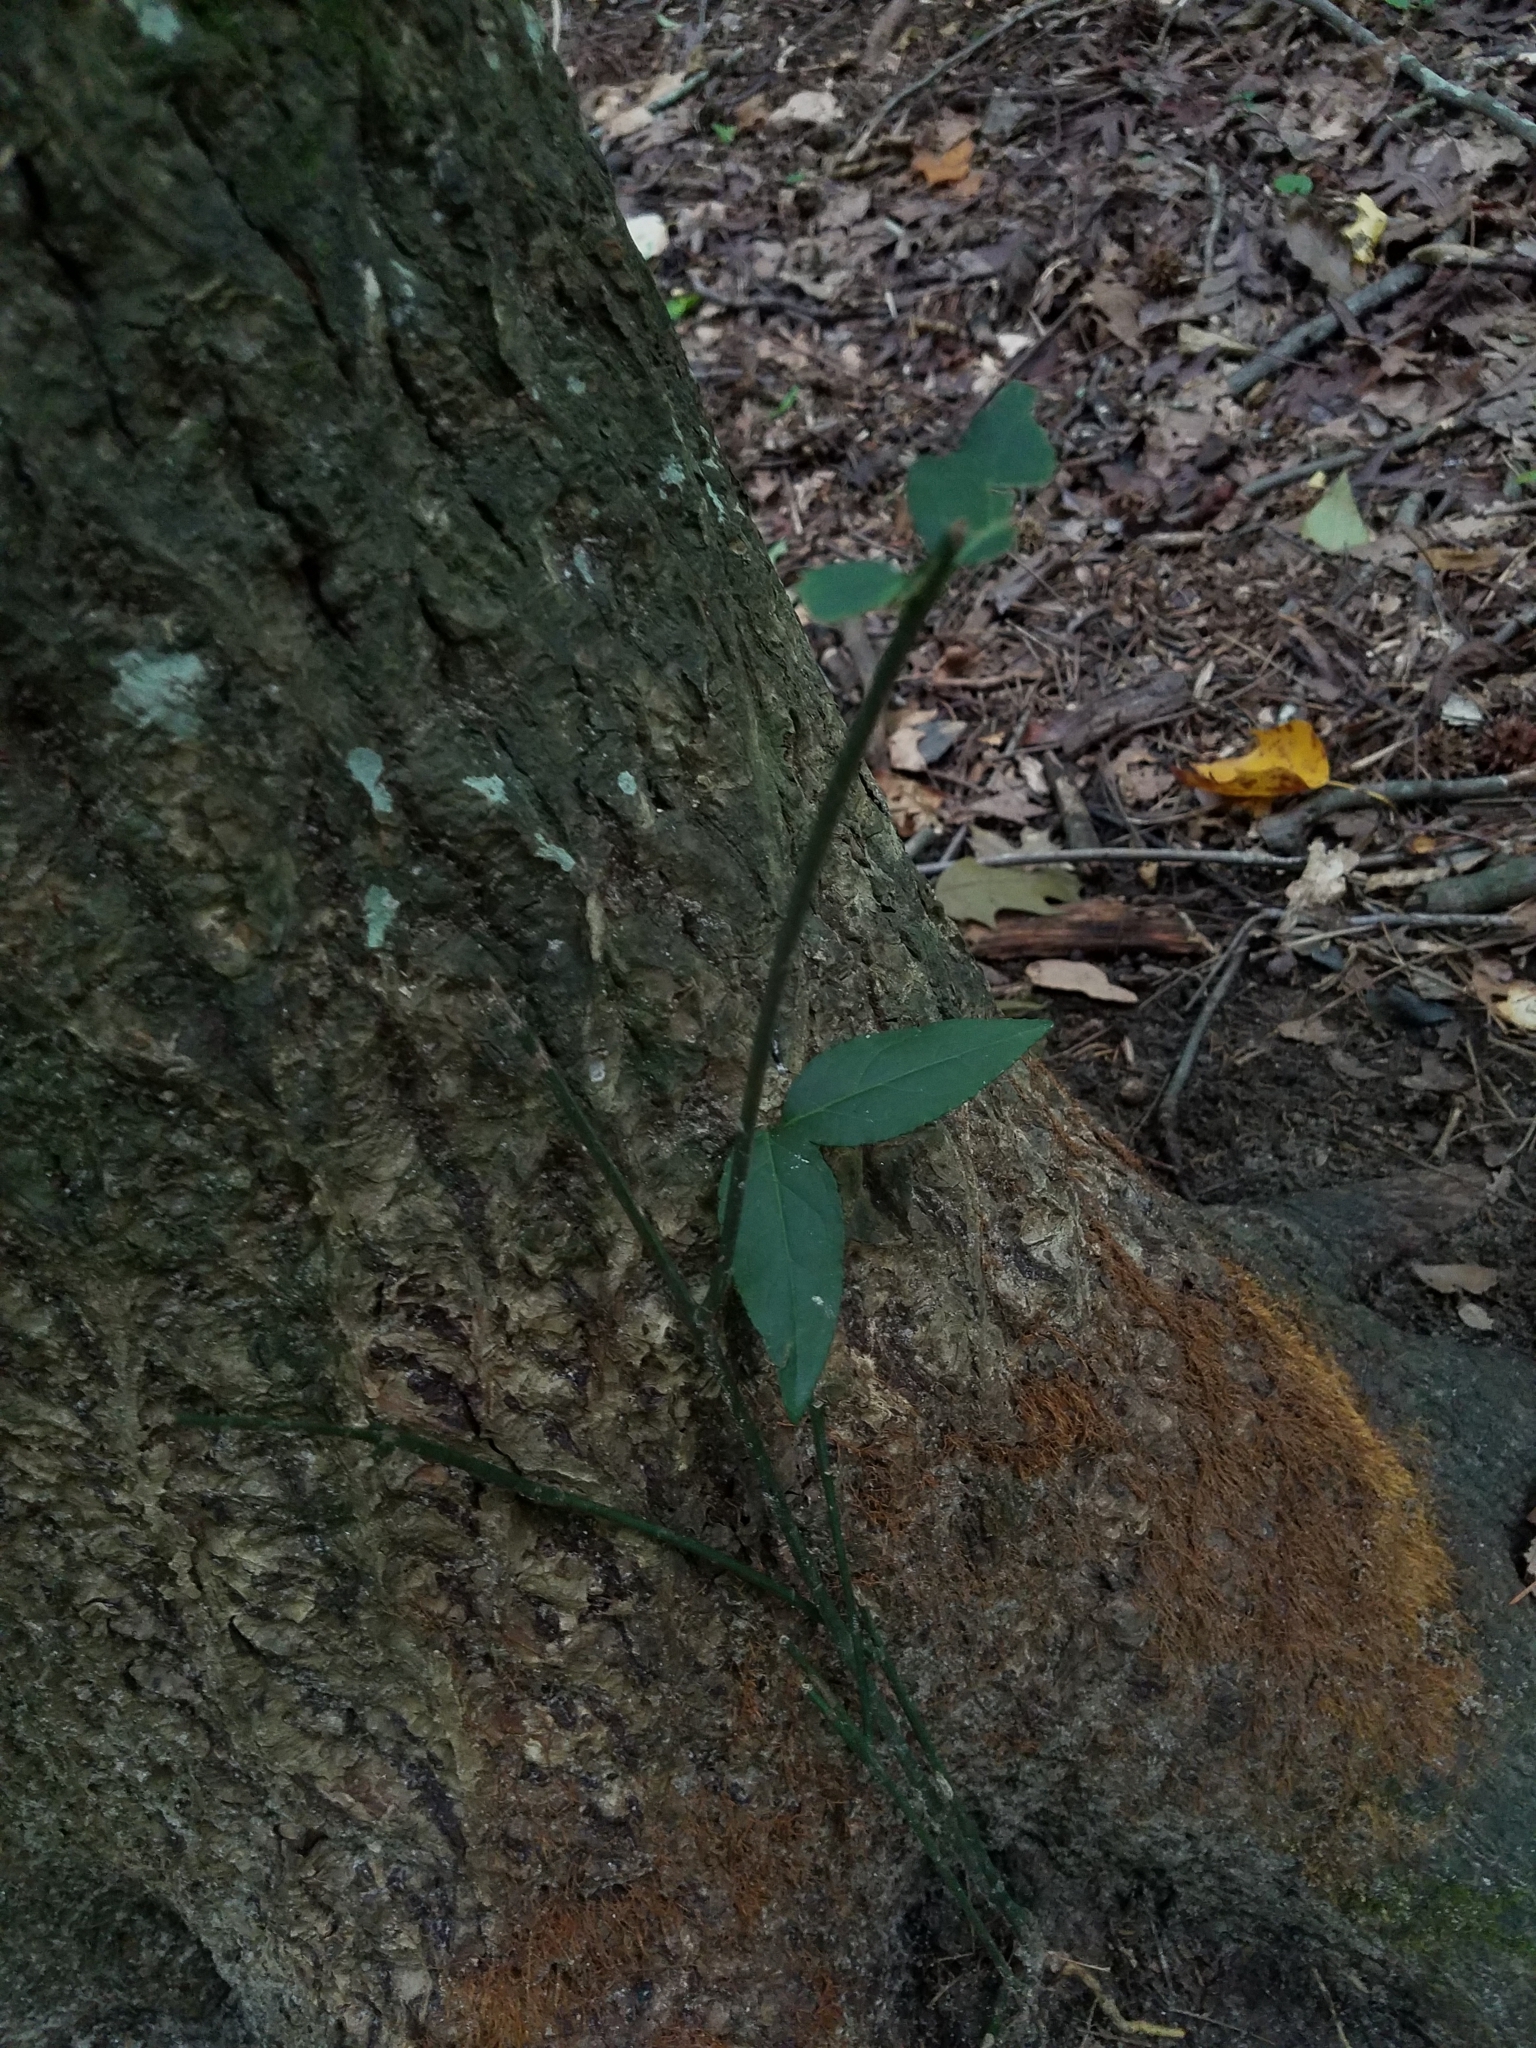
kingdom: Plantae
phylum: Tracheophyta
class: Magnoliopsida
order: Celastrales
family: Celastraceae
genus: Euonymus
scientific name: Euonymus americanus
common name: Bursting-heart
